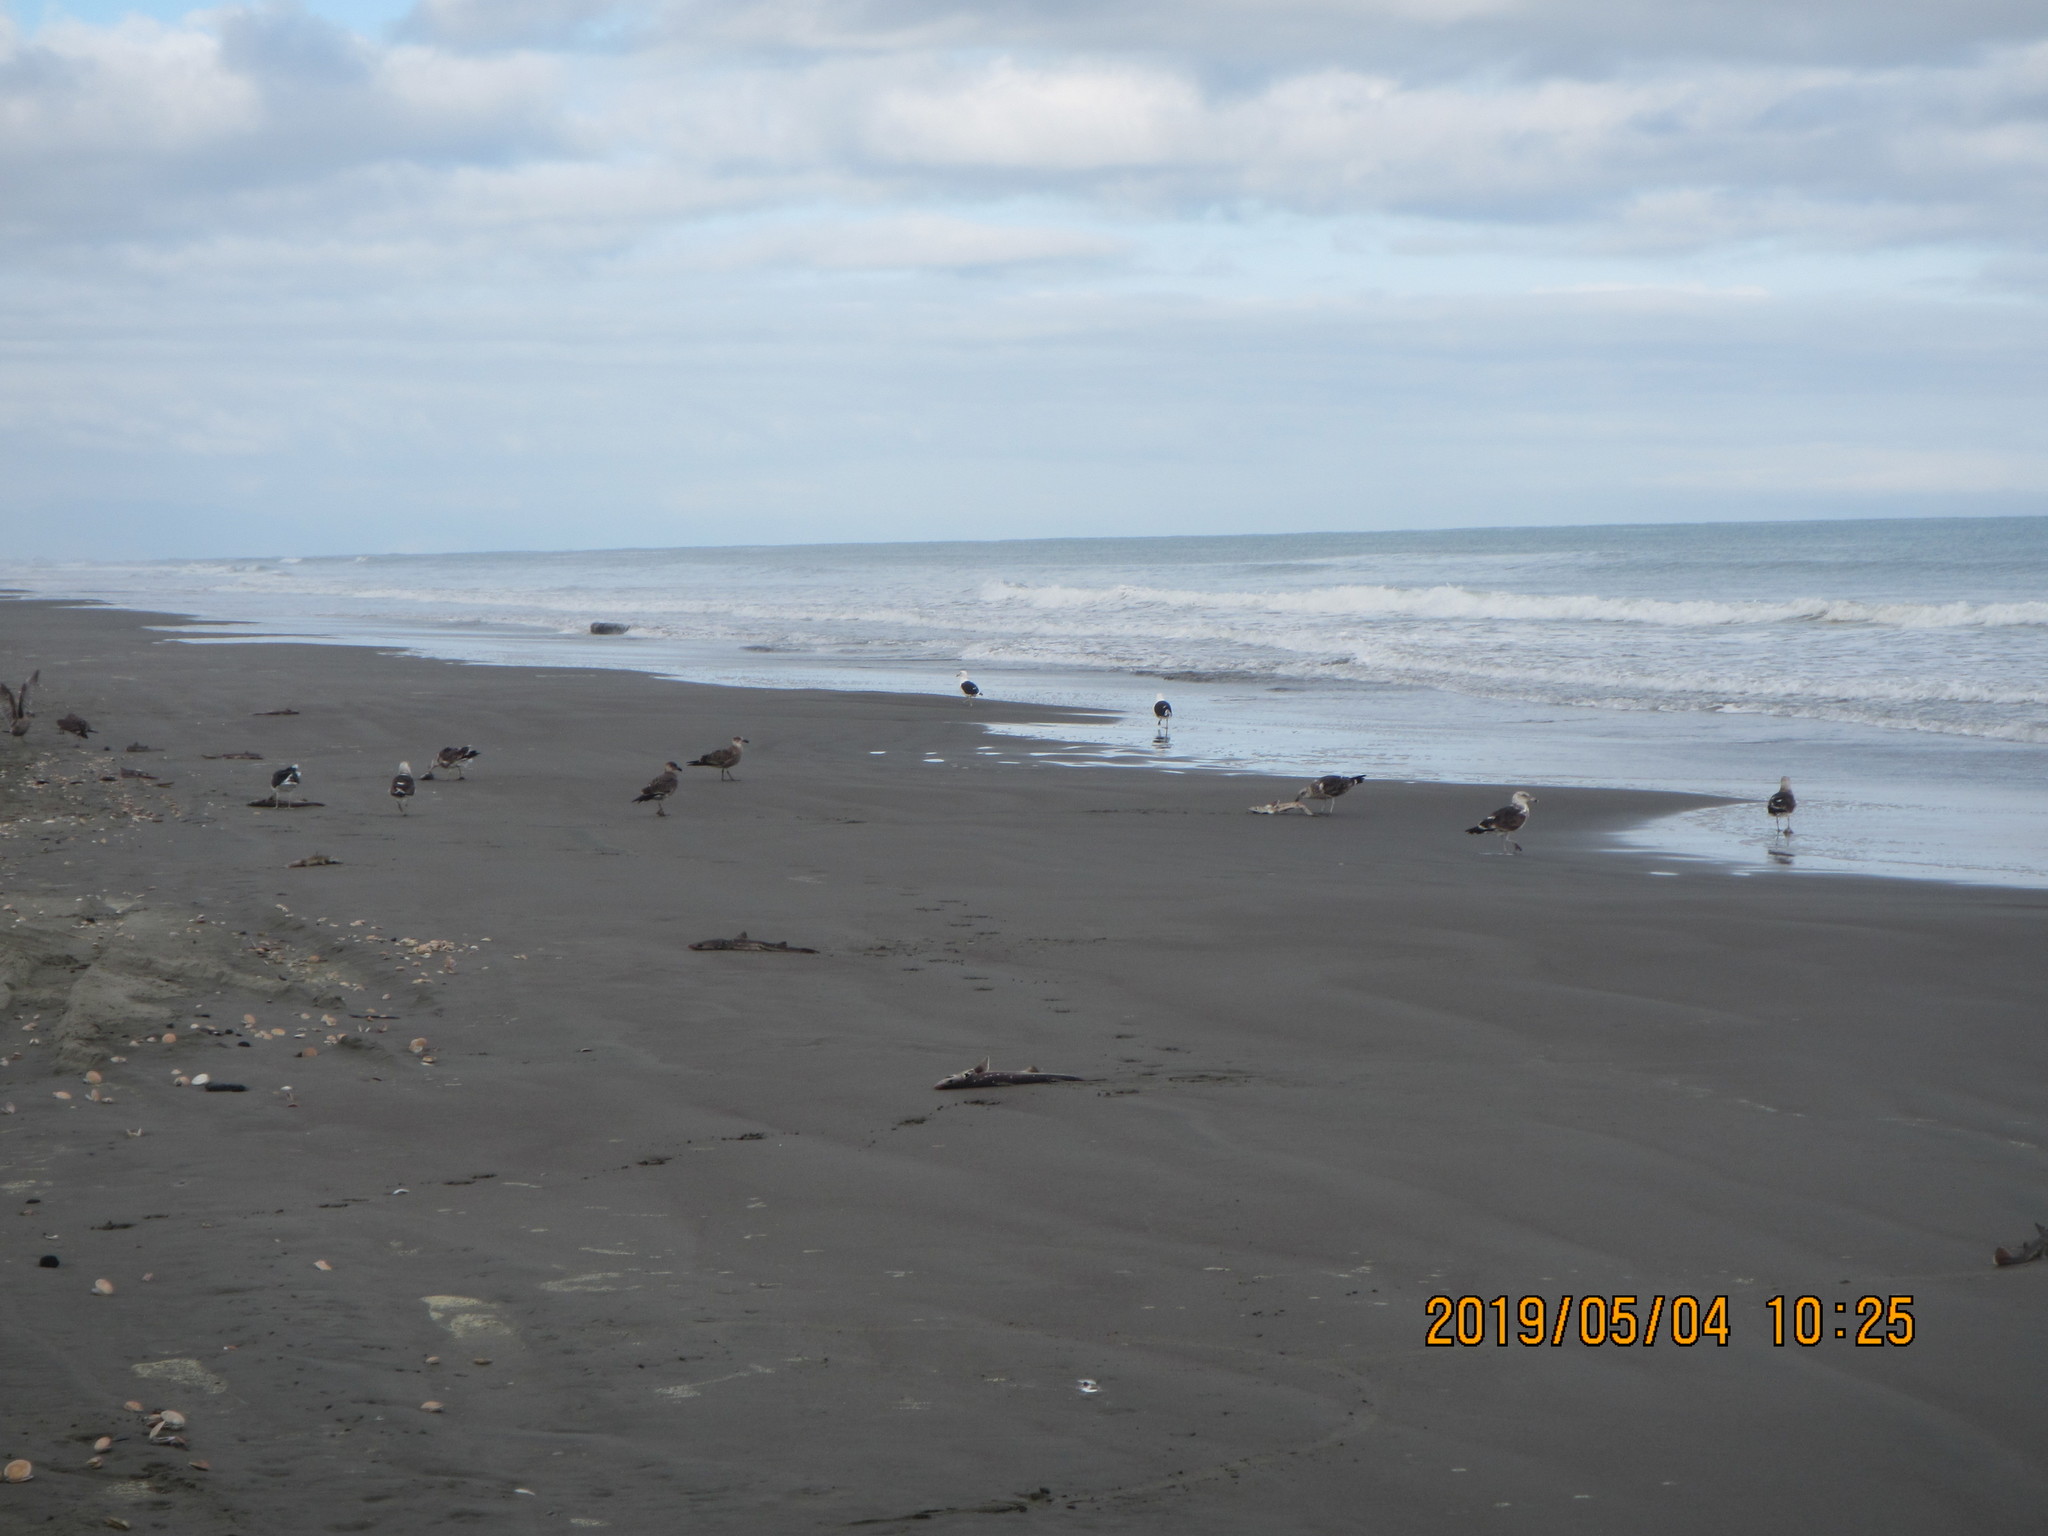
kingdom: Animalia
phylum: Chordata
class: Elasmobranchii
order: Squaliformes
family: Squalidae
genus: Squalus
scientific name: Squalus acanthias
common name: Spurdog
